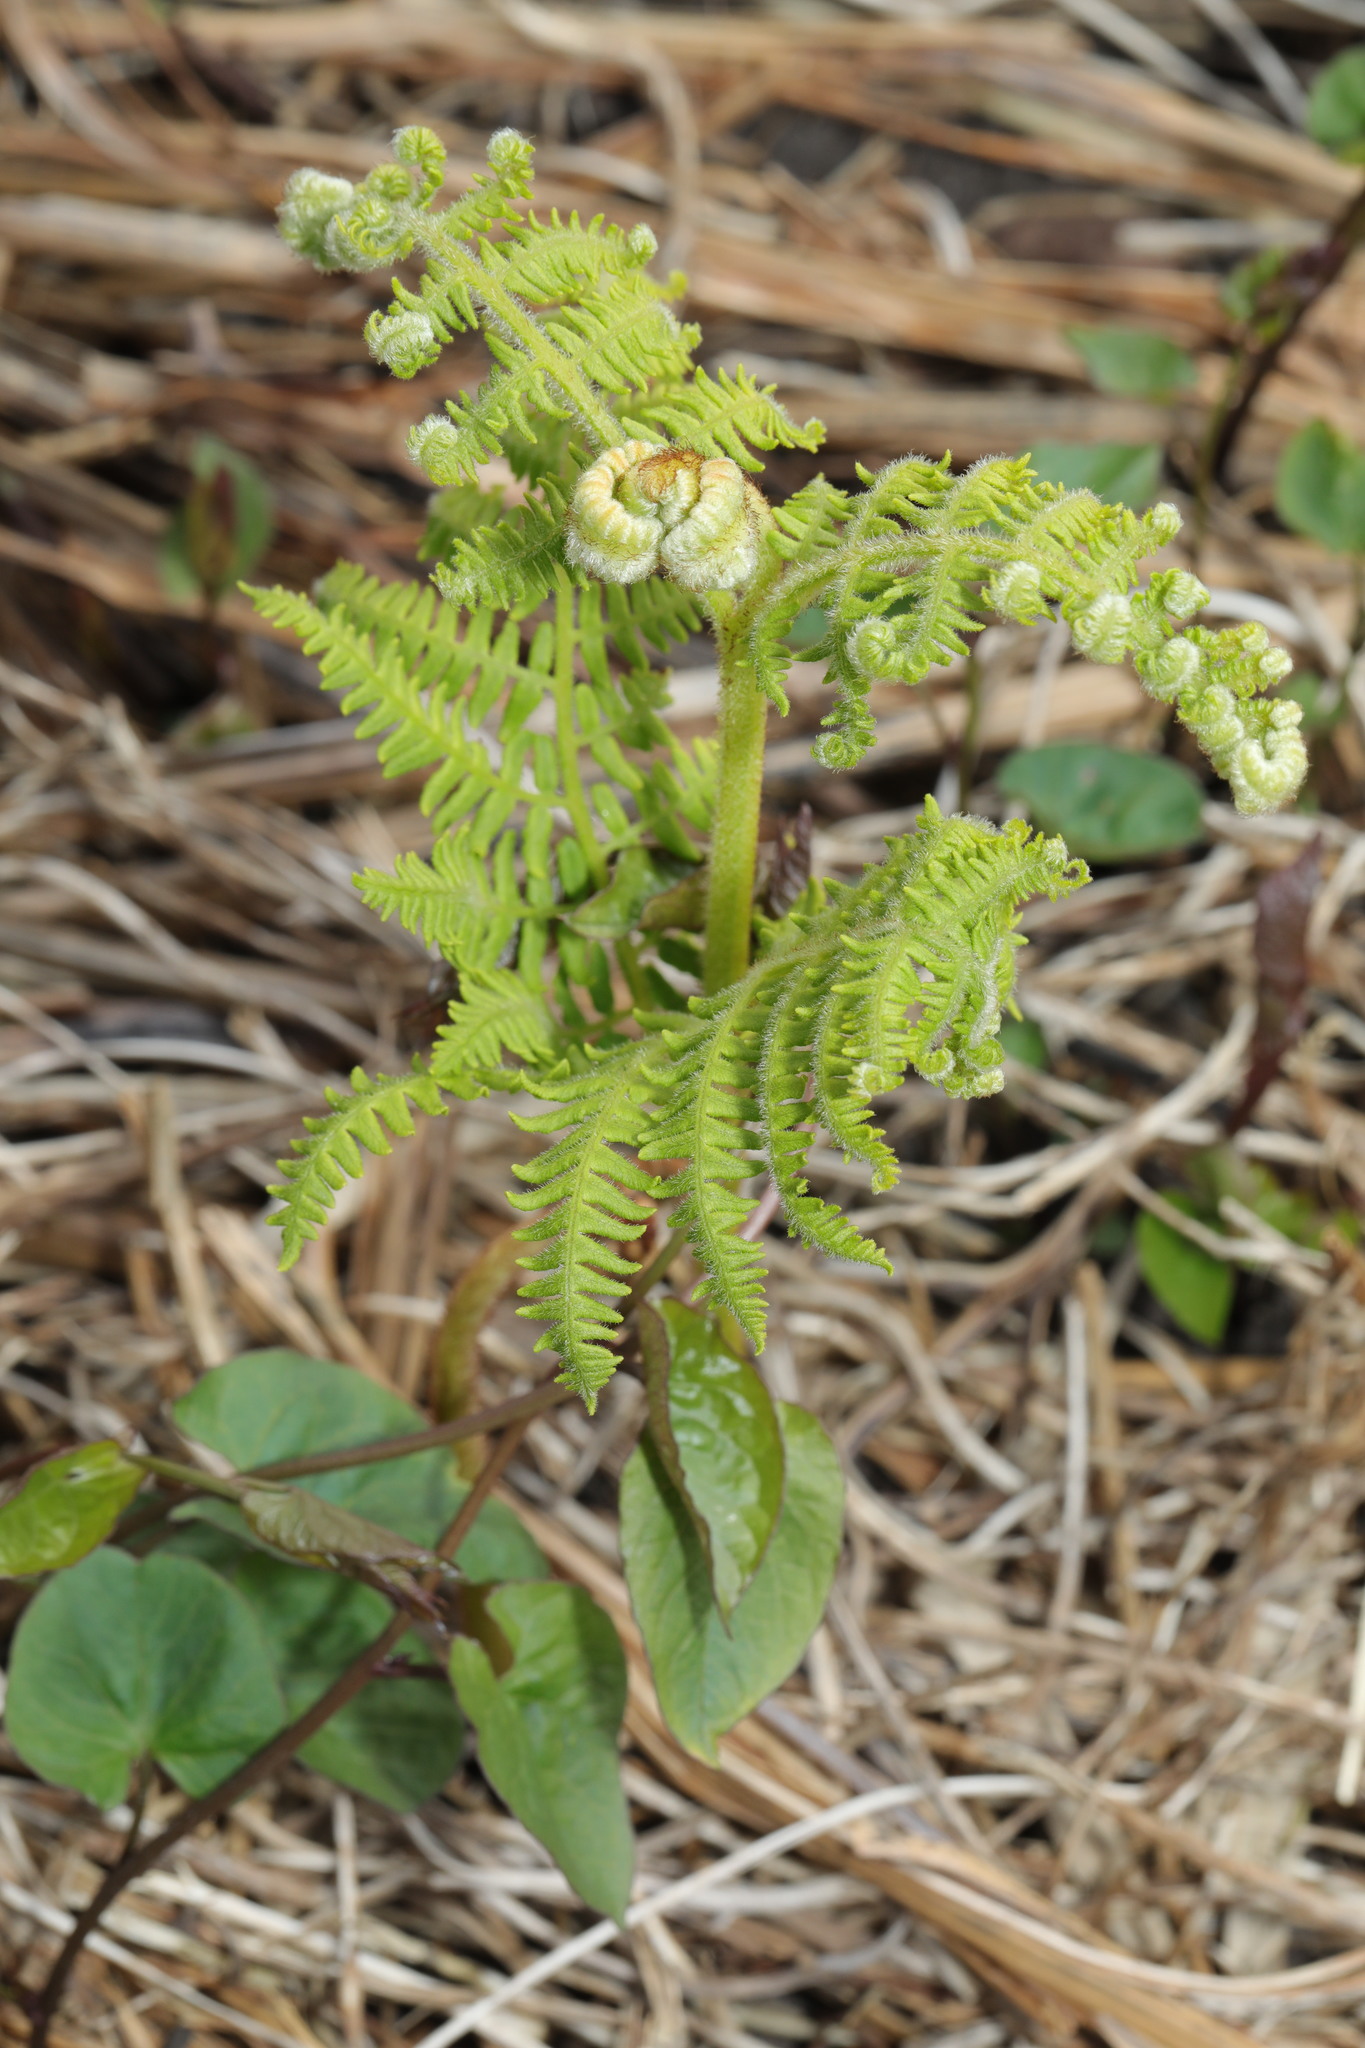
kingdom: Plantae
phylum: Tracheophyta
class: Polypodiopsida
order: Polypodiales
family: Dennstaedtiaceae
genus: Pteridium
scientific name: Pteridium aquilinum
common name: Bracken
